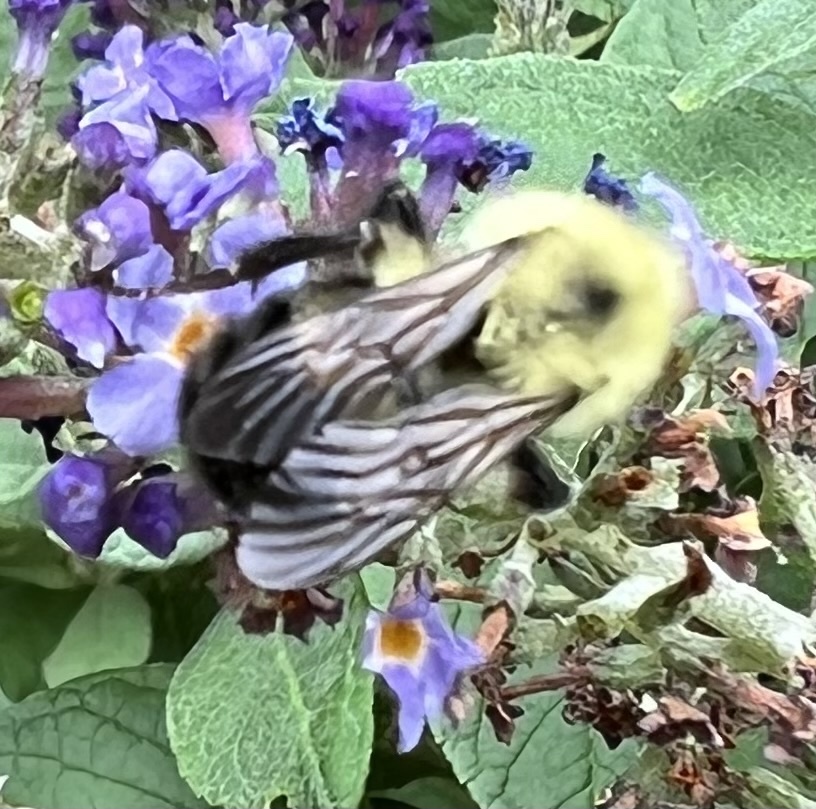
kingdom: Animalia
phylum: Arthropoda
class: Insecta
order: Hymenoptera
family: Apidae
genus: Bombus
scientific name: Bombus bimaculatus
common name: Two-spotted bumble bee
